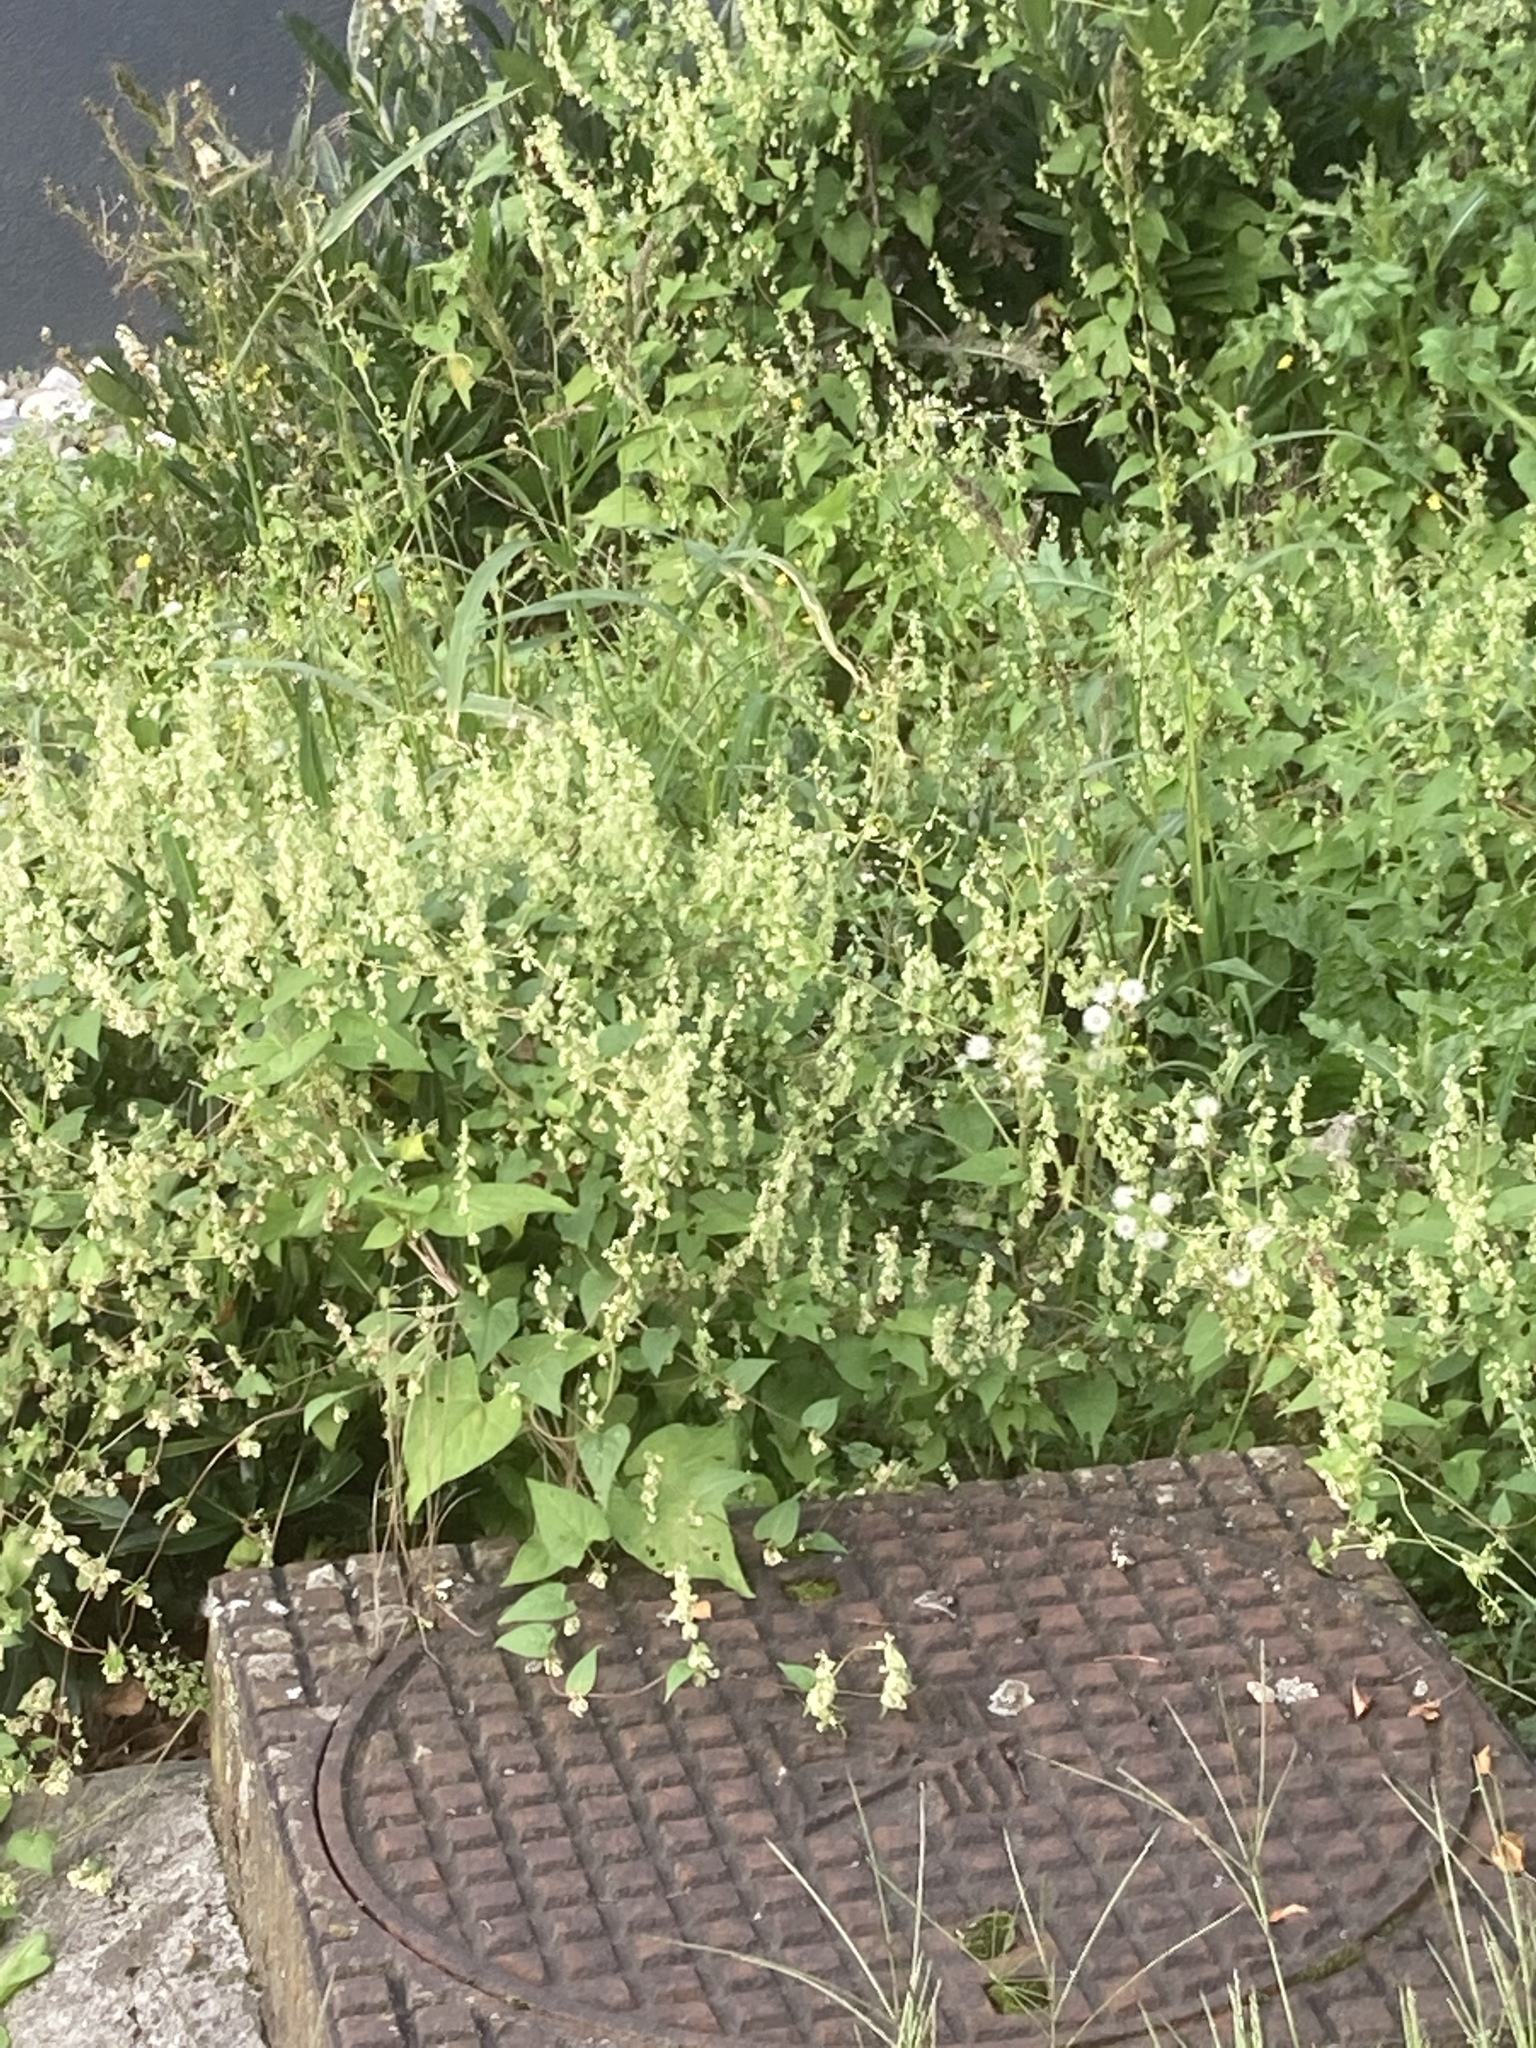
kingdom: Plantae
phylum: Tracheophyta
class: Magnoliopsida
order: Caryophyllales
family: Polygonaceae
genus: Fallopia
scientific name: Fallopia dumetorum
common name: Copse-bindweed
